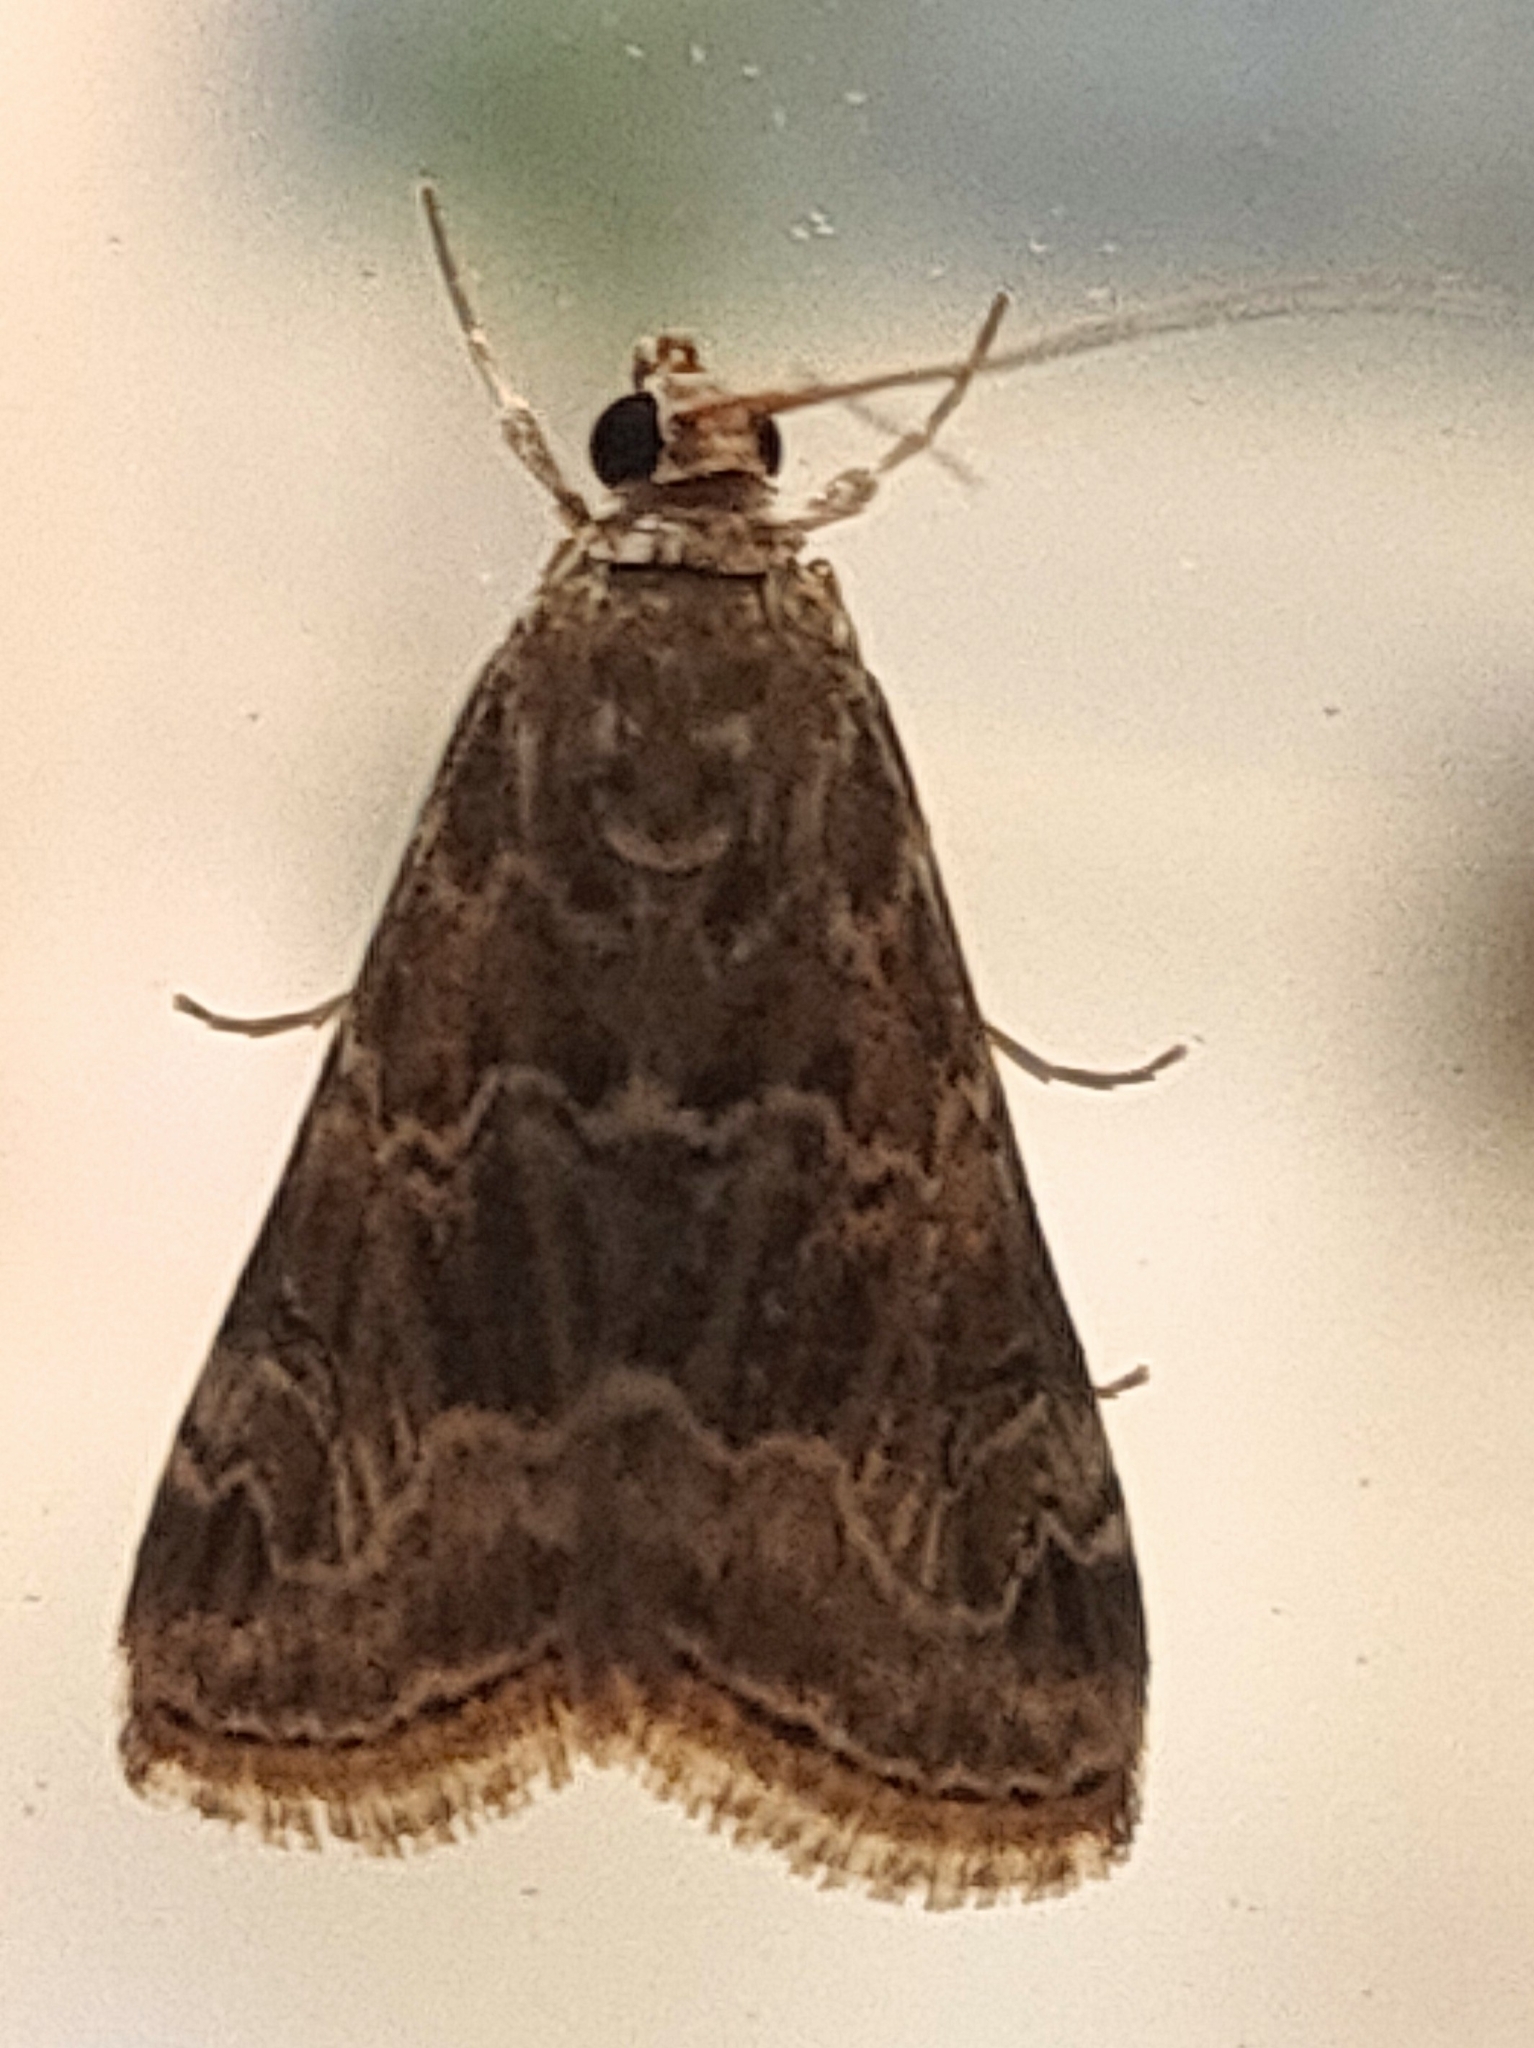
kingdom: Animalia
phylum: Arthropoda
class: Insecta
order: Lepidoptera
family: Crambidae
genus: Hellula
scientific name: Hellula undalis
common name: Cabbage webworm
